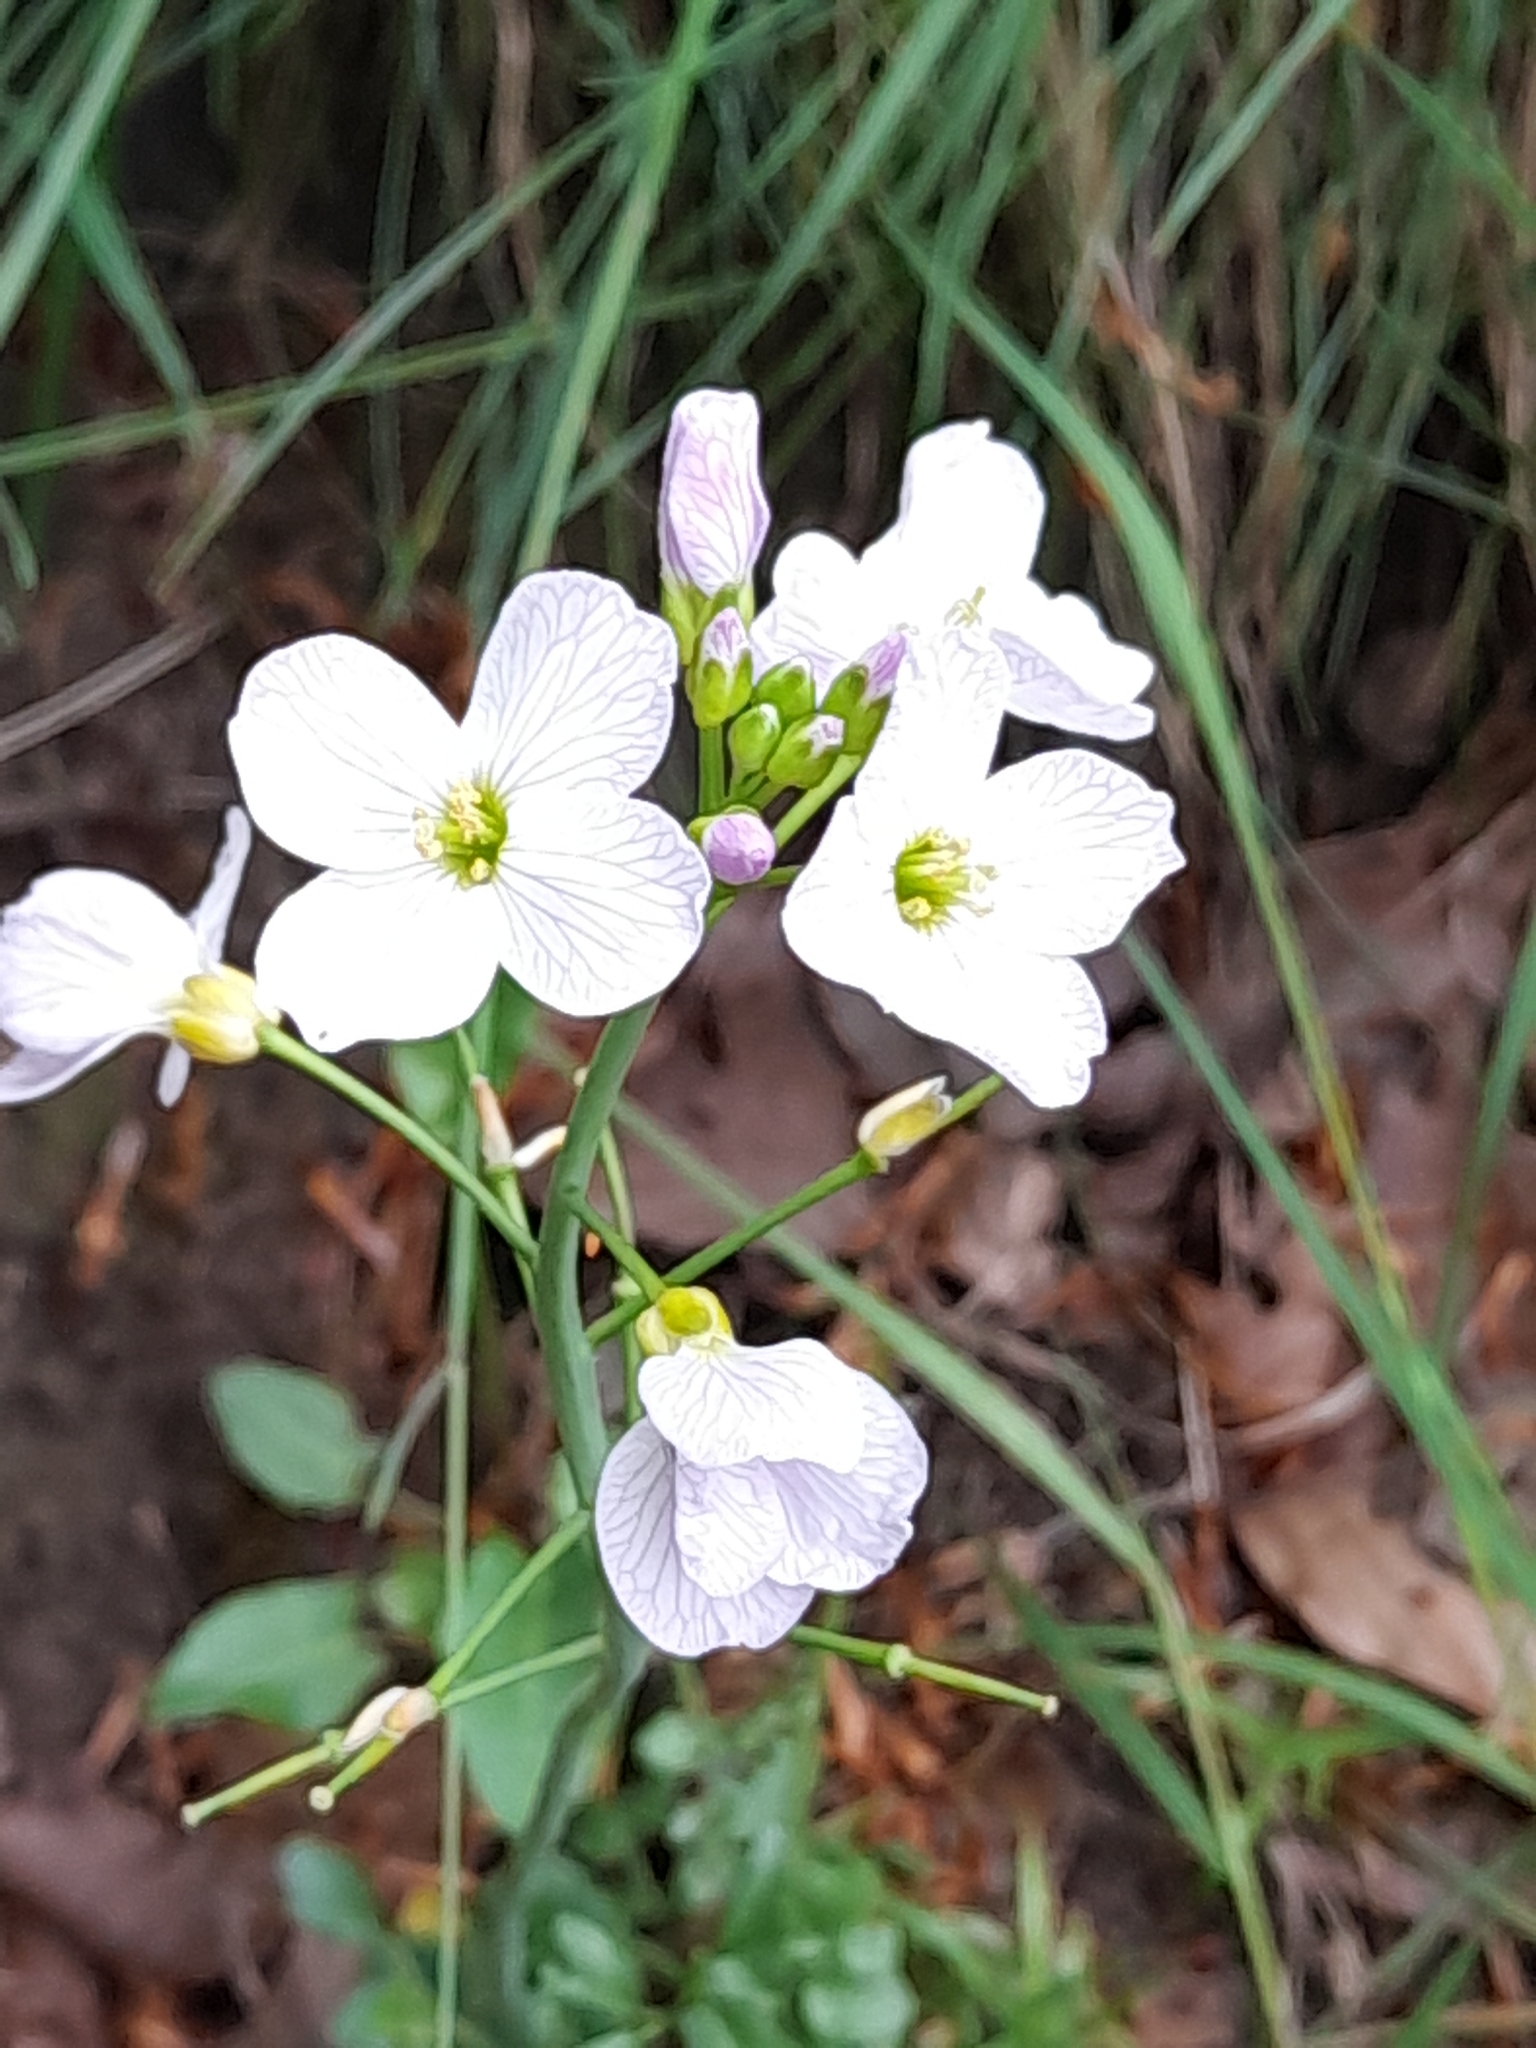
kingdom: Plantae
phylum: Tracheophyta
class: Magnoliopsida
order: Brassicales
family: Brassicaceae
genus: Cardamine
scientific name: Cardamine pratensis
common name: Cuckoo flower
